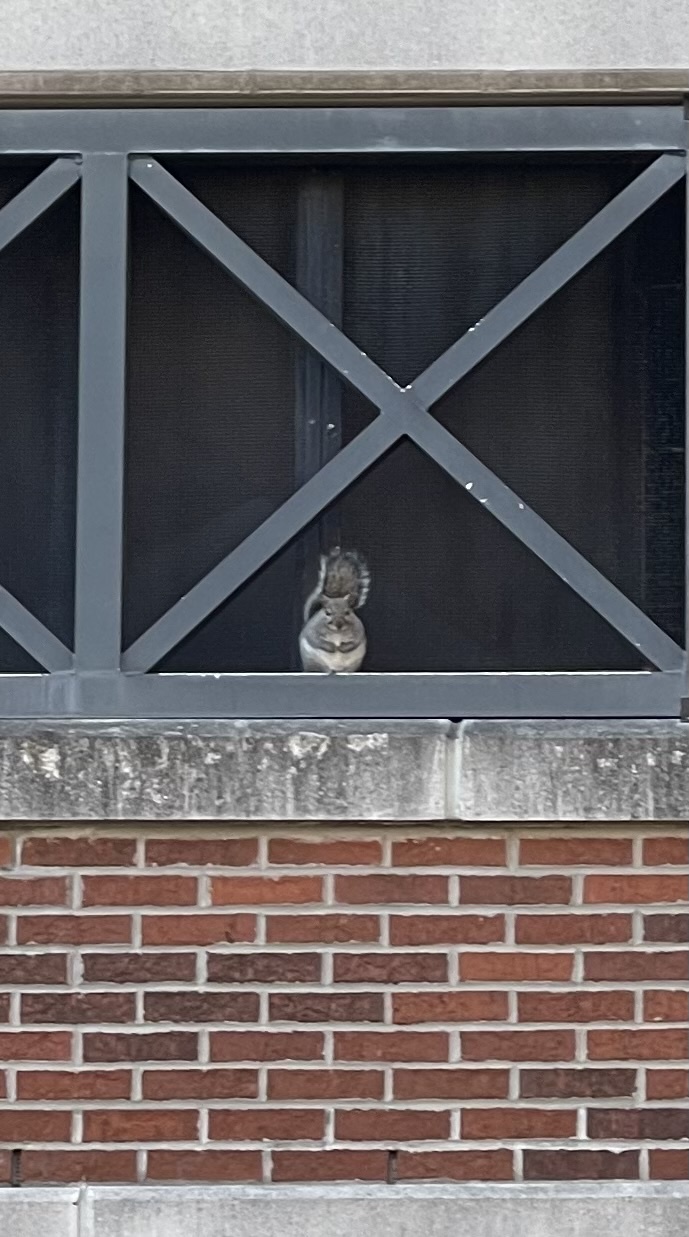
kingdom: Animalia
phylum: Chordata
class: Mammalia
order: Rodentia
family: Sciuridae
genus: Sciurus
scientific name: Sciurus carolinensis
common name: Eastern gray squirrel
